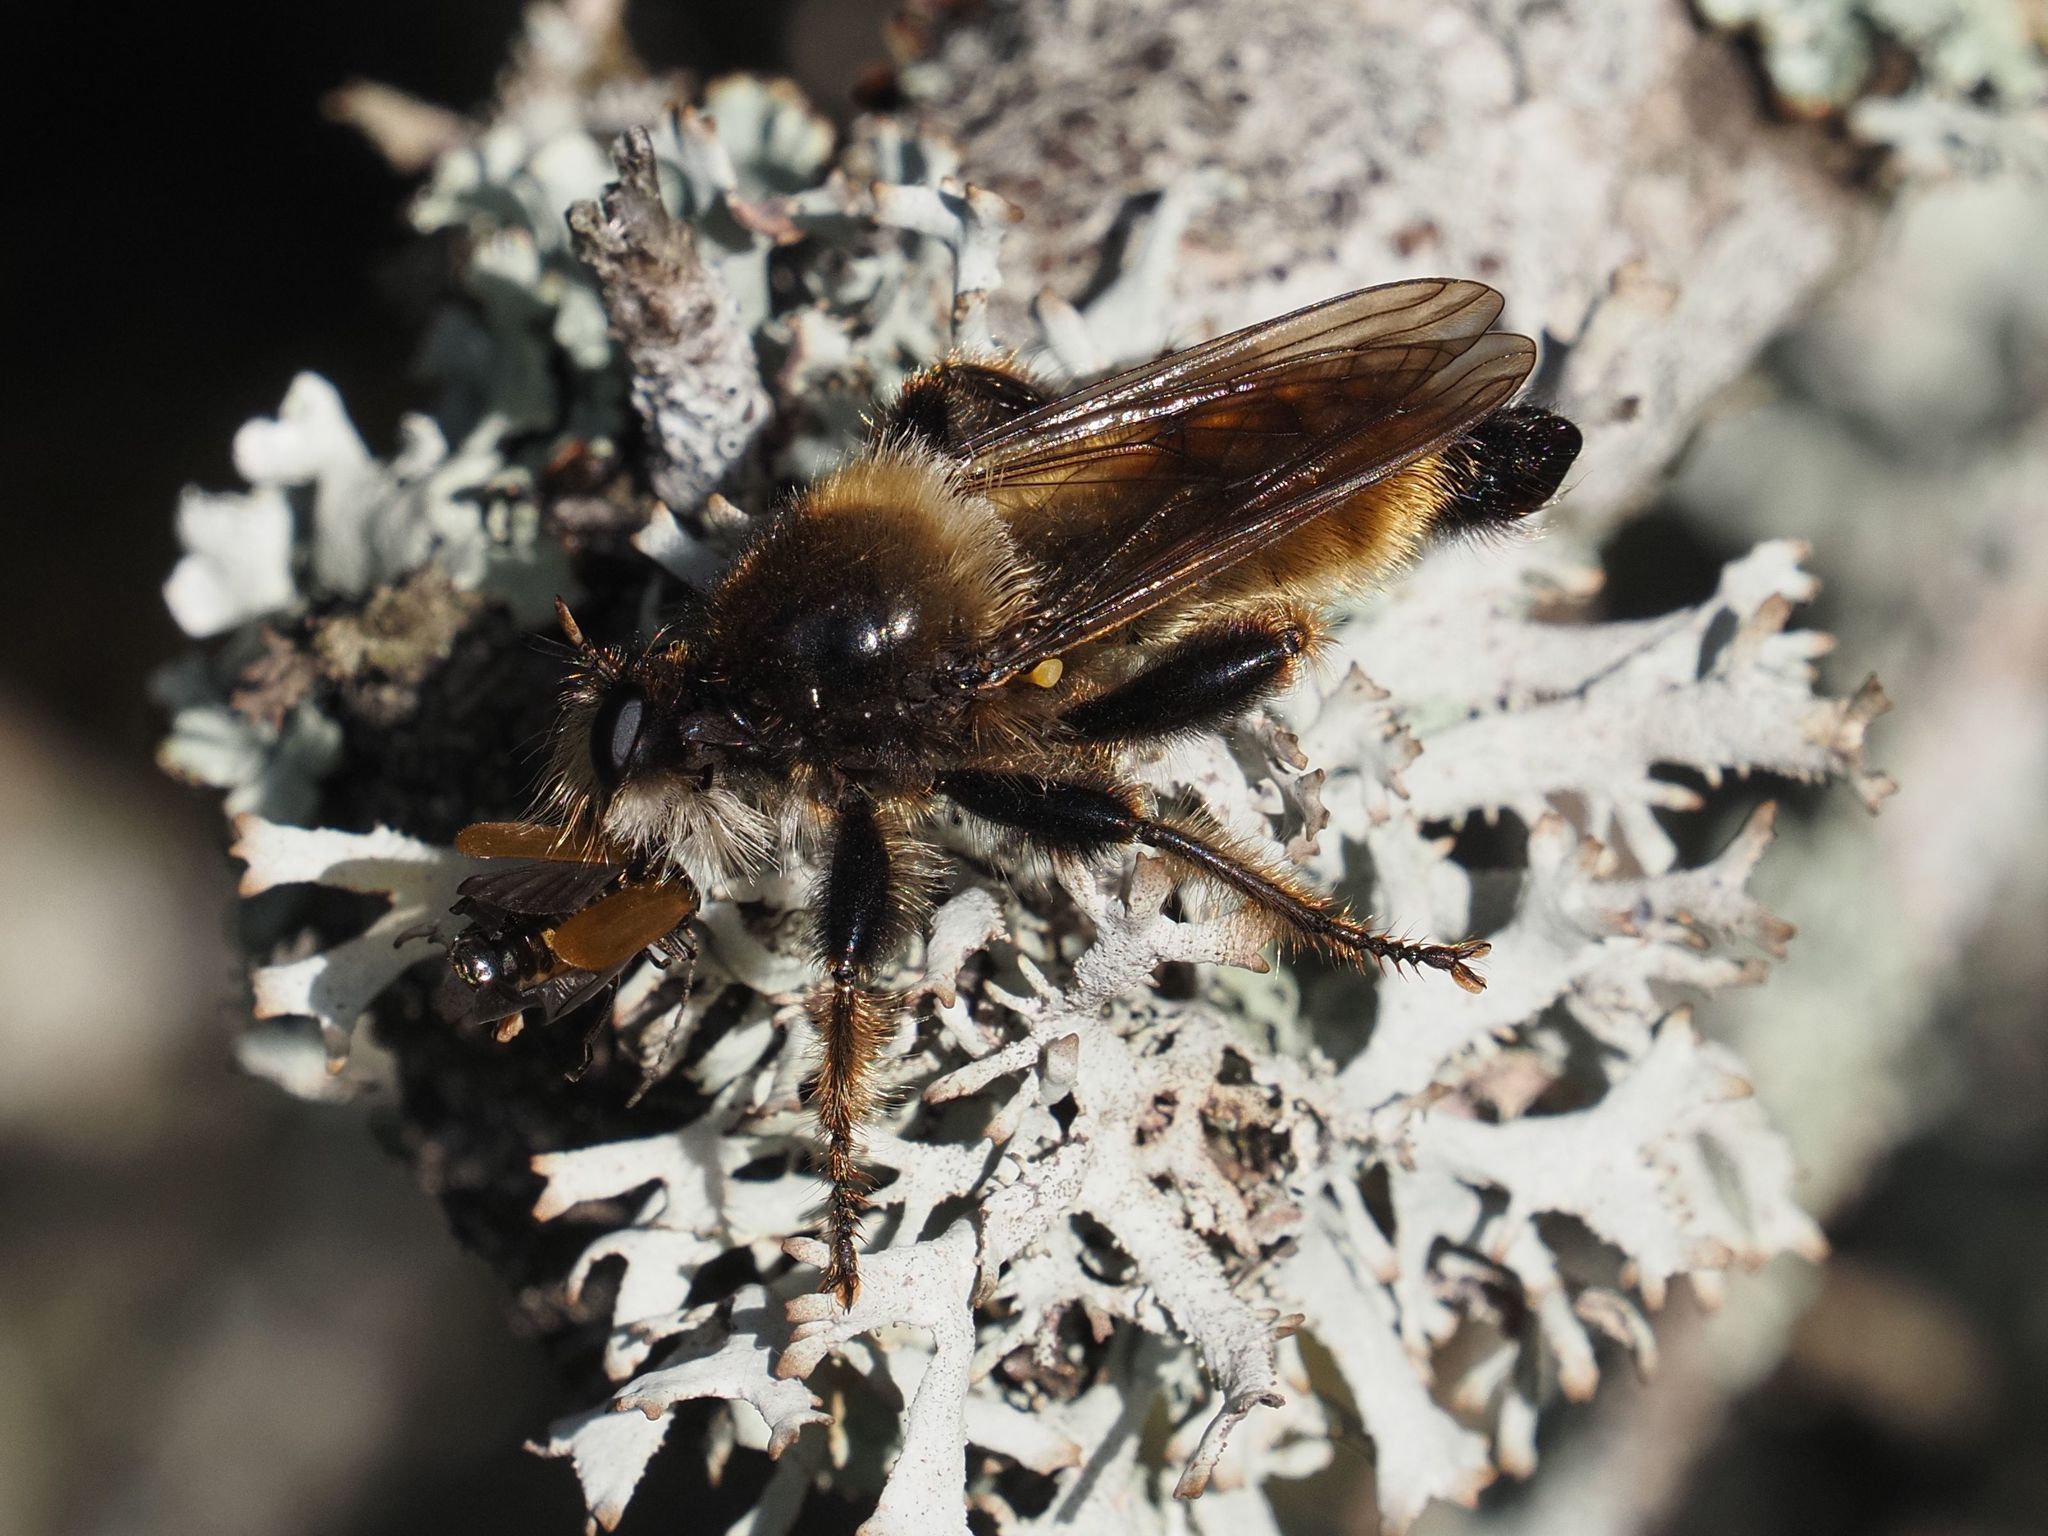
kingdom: Animalia
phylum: Arthropoda
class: Insecta
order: Diptera
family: Asilidae
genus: Laphria
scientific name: Laphria flava
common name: Bumblebee robberfly
